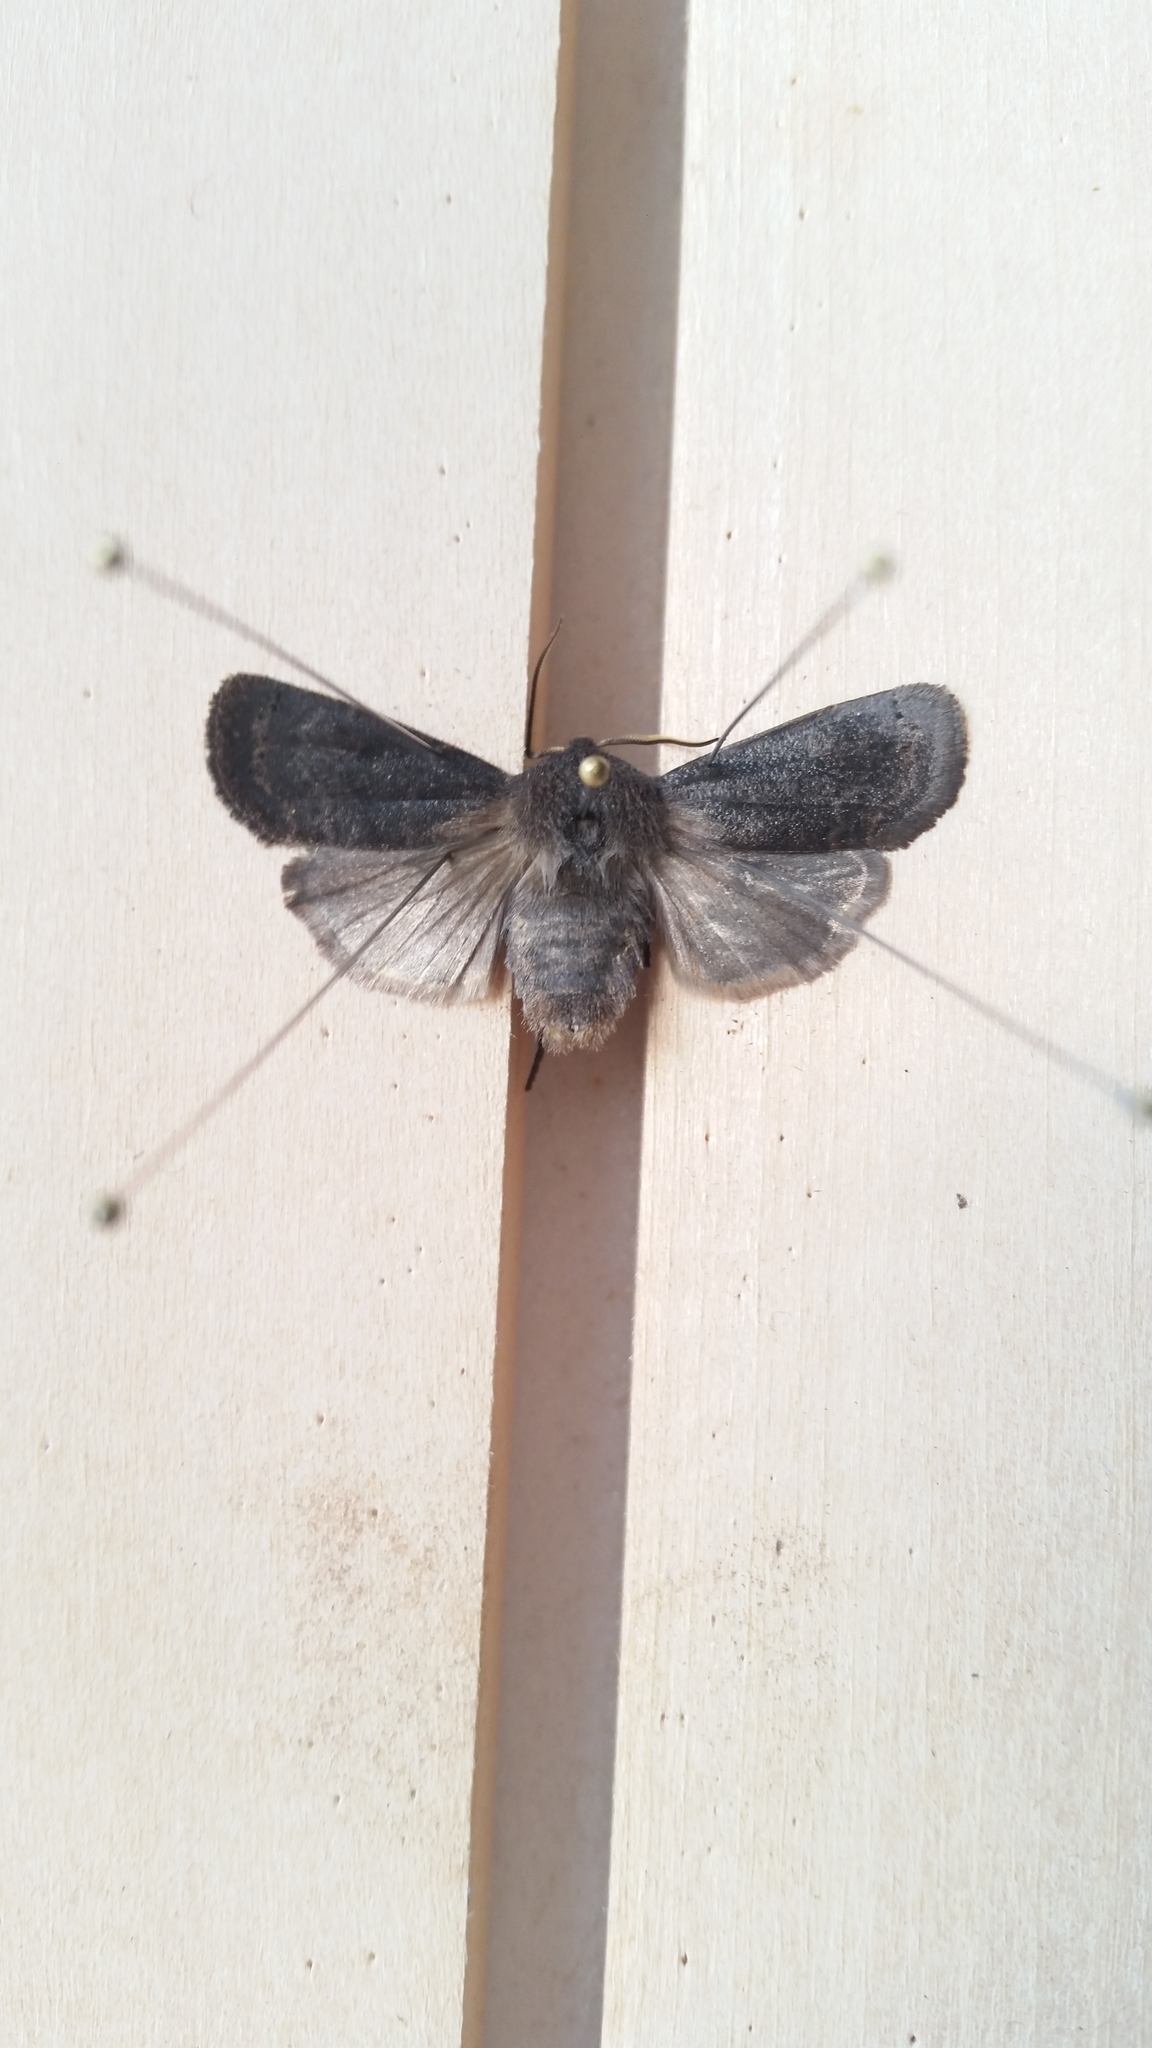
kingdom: Animalia
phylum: Arthropoda
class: Insecta
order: Lepidoptera
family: Noctuidae
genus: Homoglaea
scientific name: Homoglaea hircina
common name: Goat sallow
